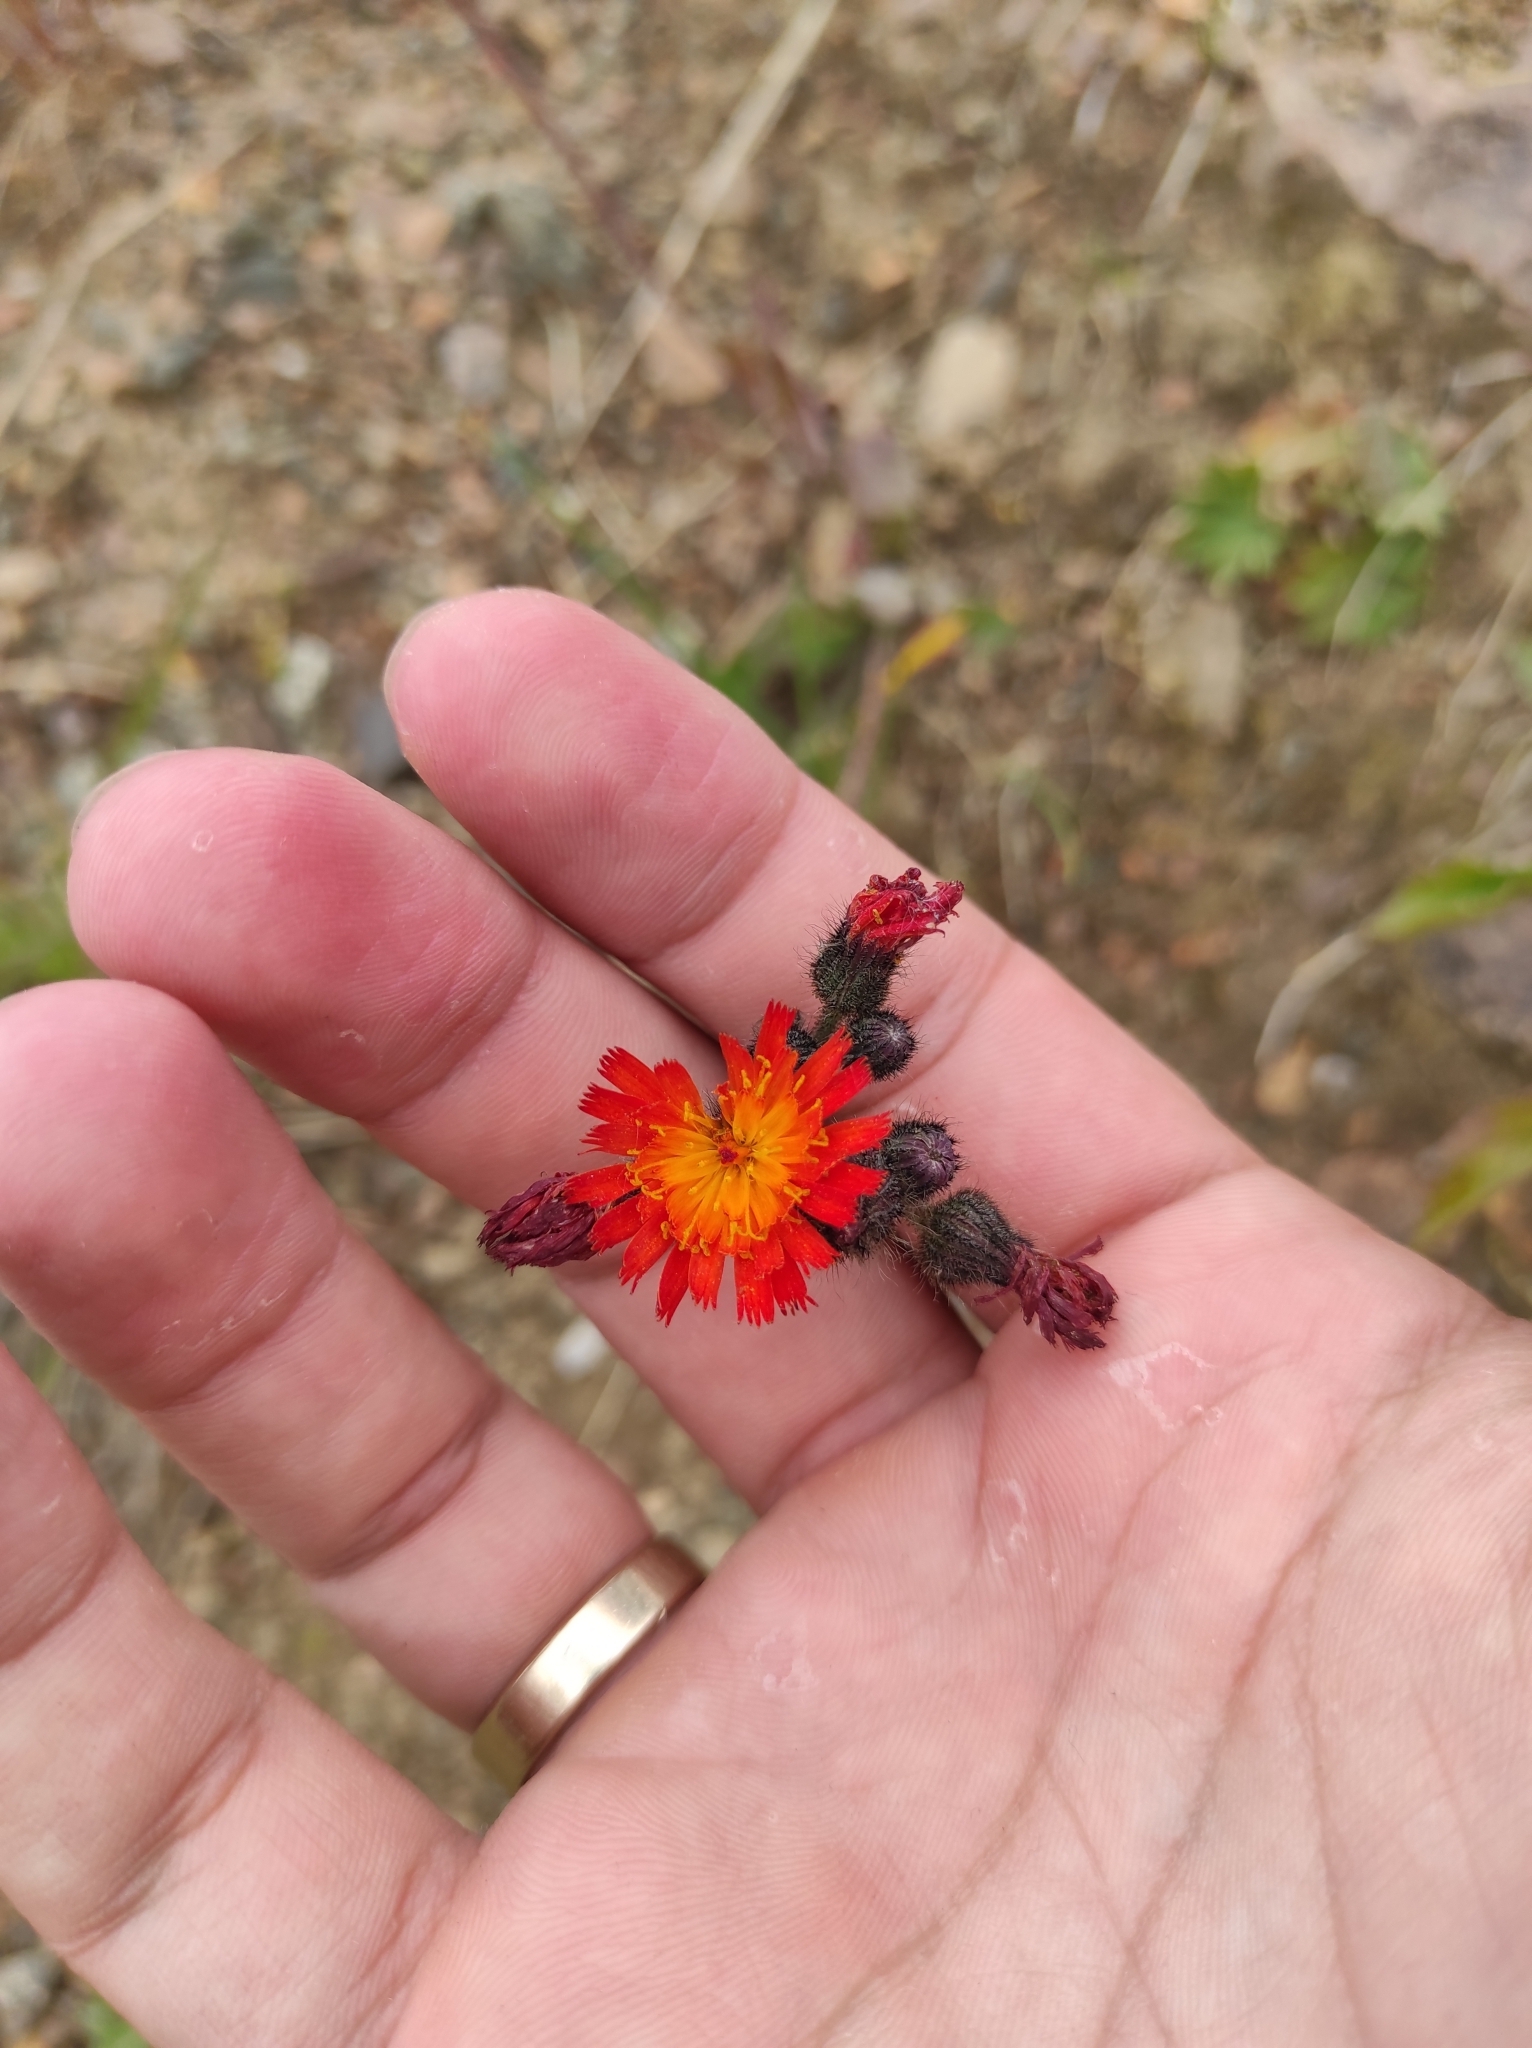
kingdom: Plantae
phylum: Tracheophyta
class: Magnoliopsida
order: Asterales
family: Asteraceae
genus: Pilosella
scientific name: Pilosella aurantiaca
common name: Fox-and-cubs
